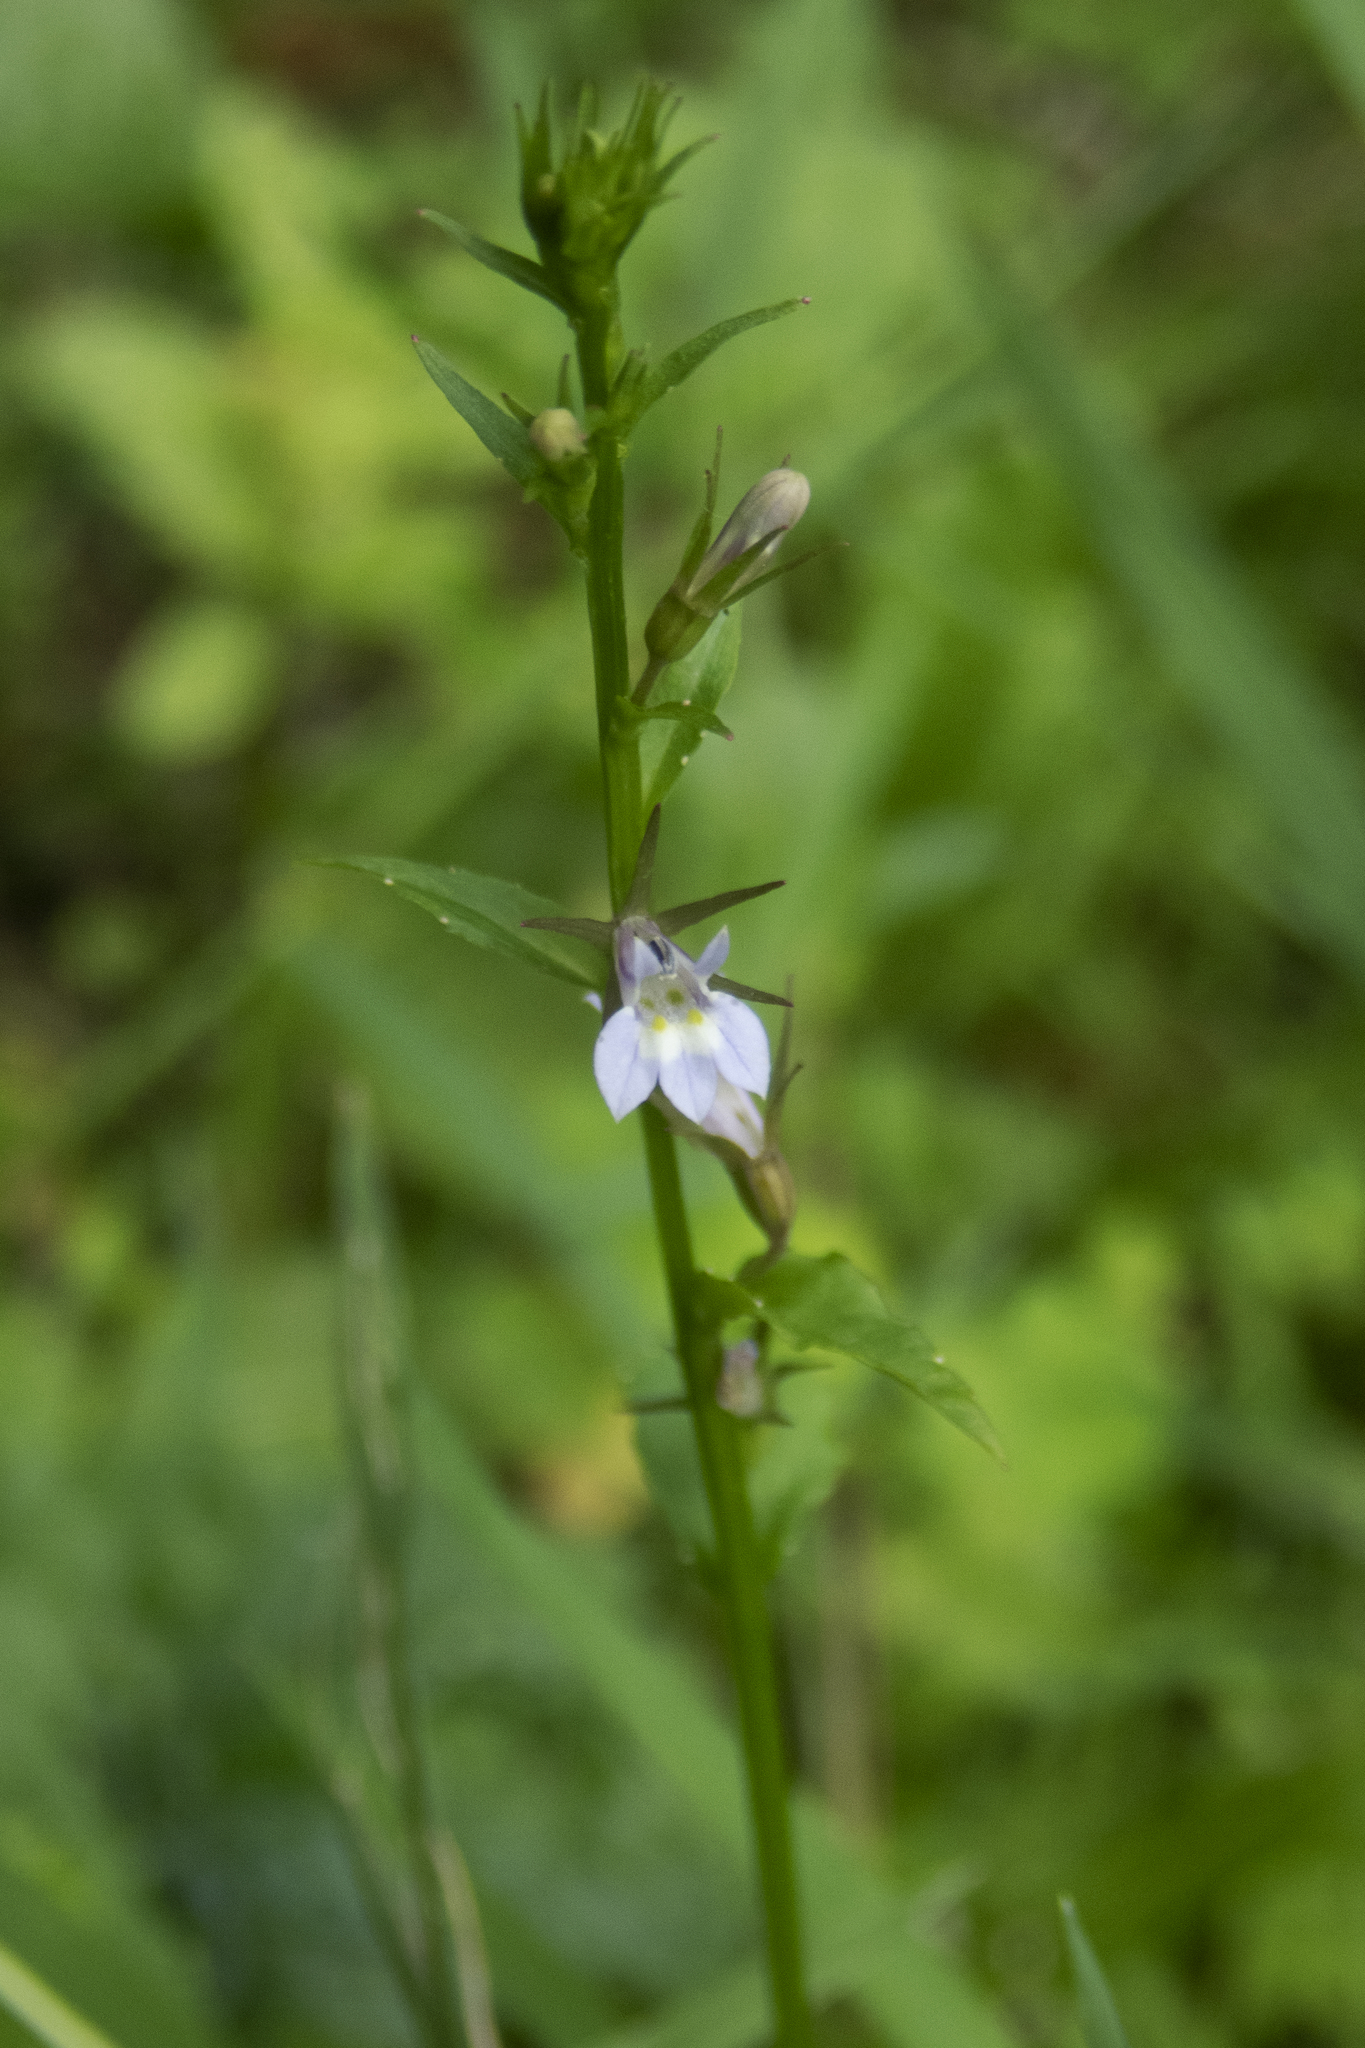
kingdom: Plantae
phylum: Tracheophyta
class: Magnoliopsida
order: Asterales
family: Campanulaceae
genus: Lobelia
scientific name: Lobelia inflata
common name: Indian tobacco
